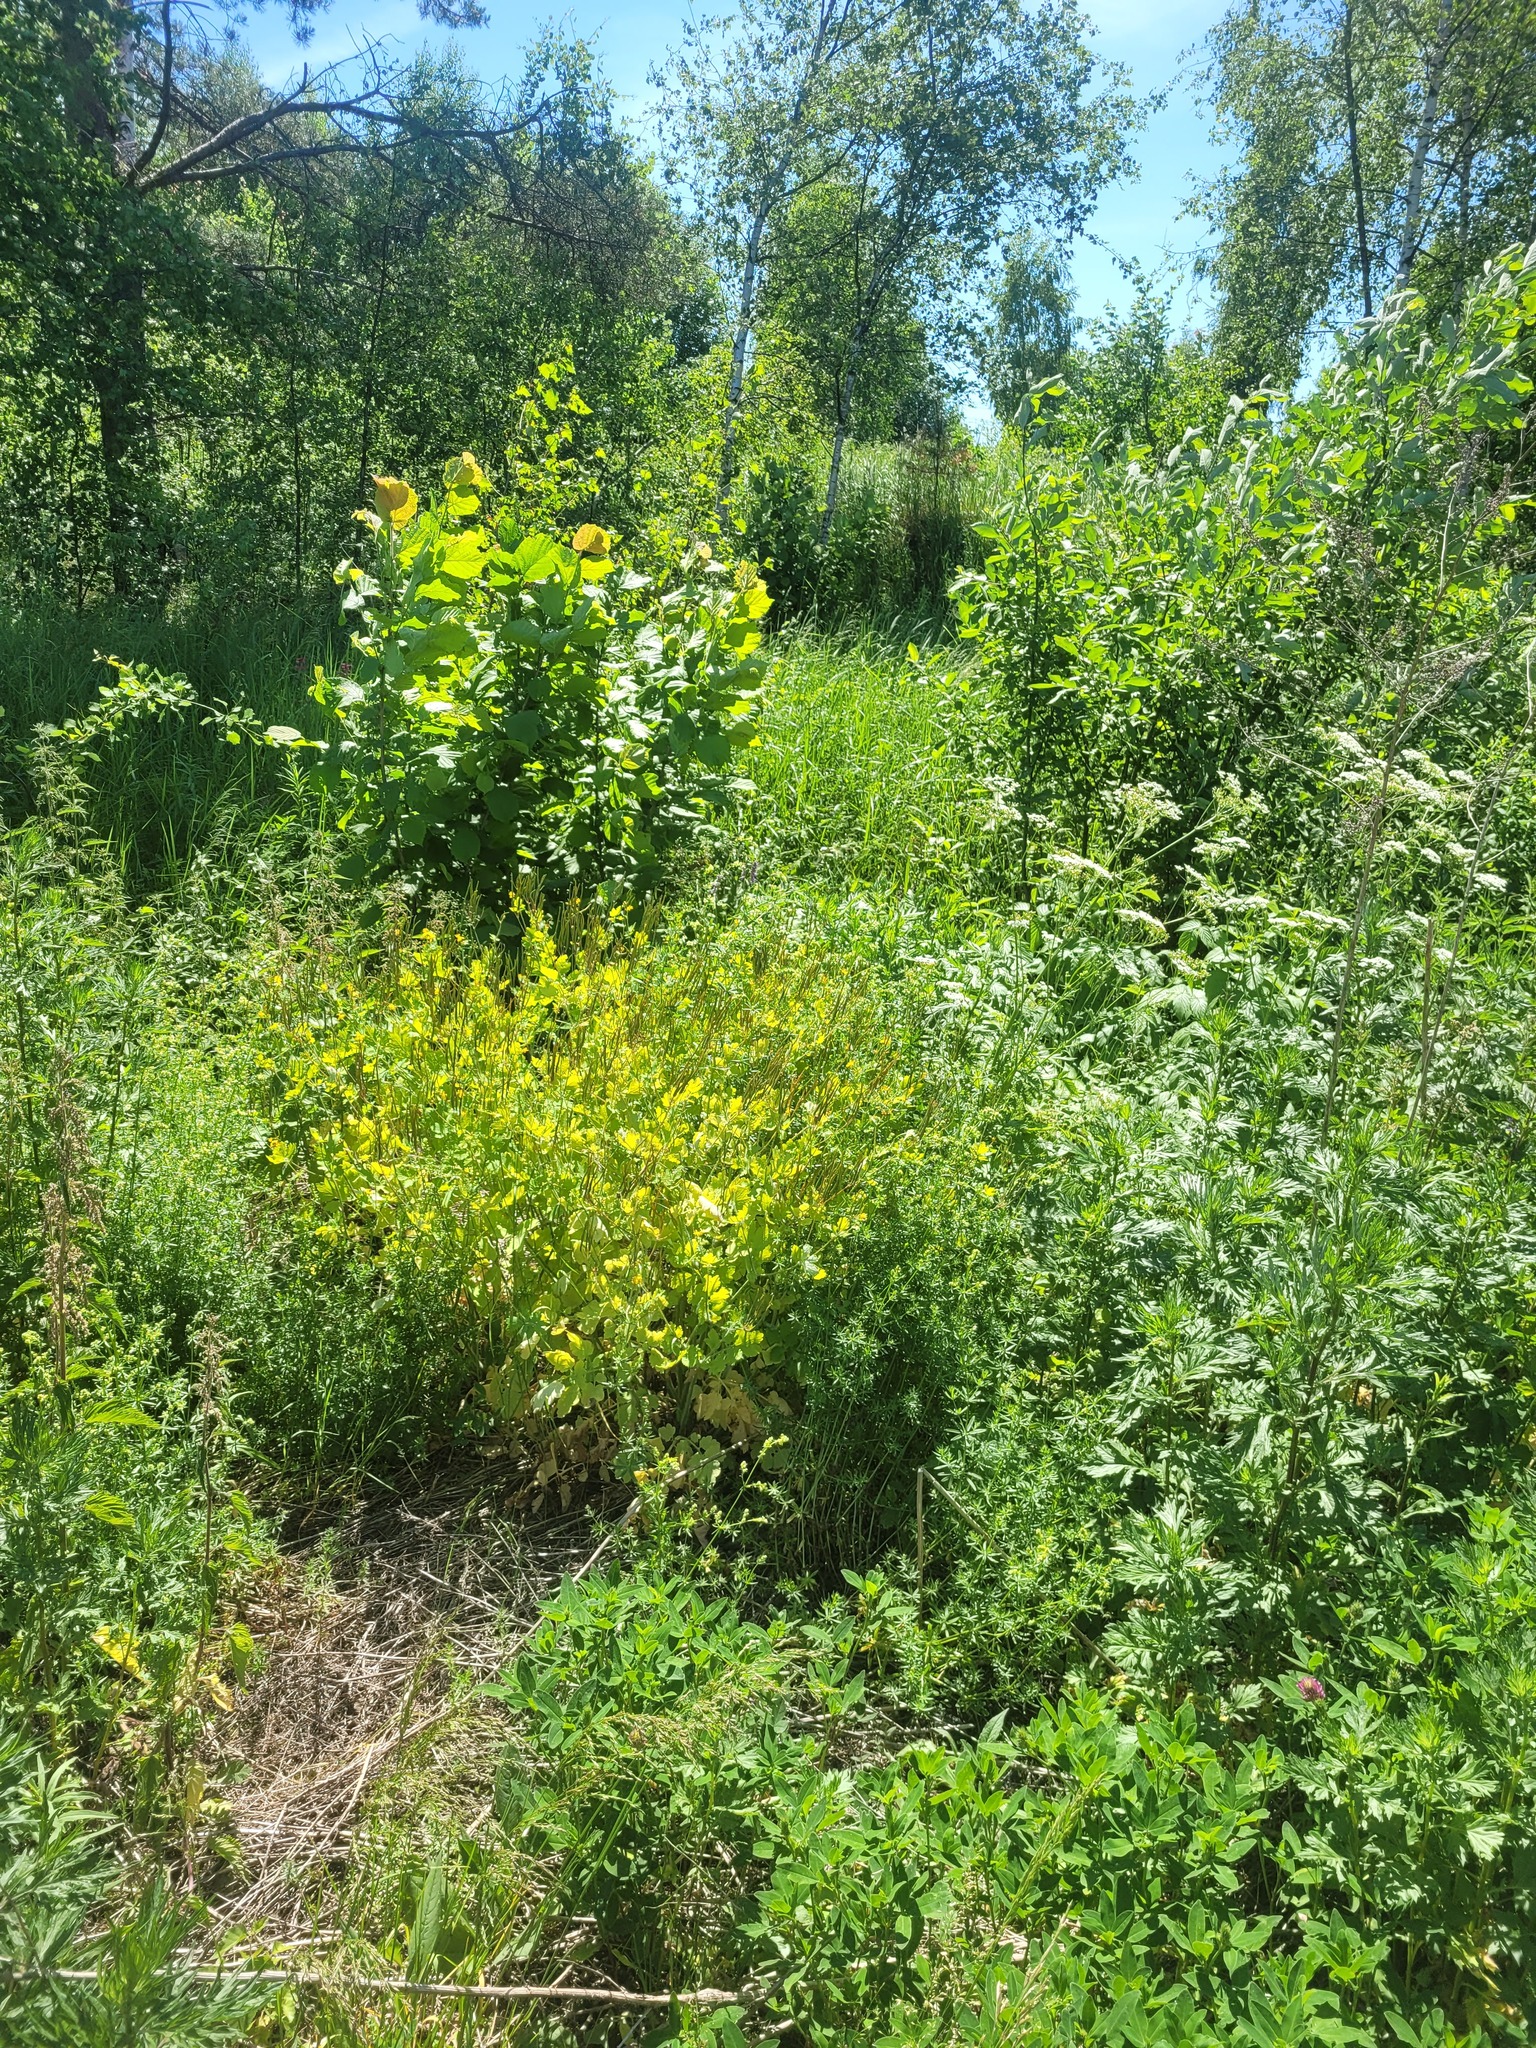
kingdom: Plantae
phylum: Tracheophyta
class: Magnoliopsida
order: Ranunculales
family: Papaveraceae
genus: Chelidonium
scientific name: Chelidonium majus
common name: Greater celandine
